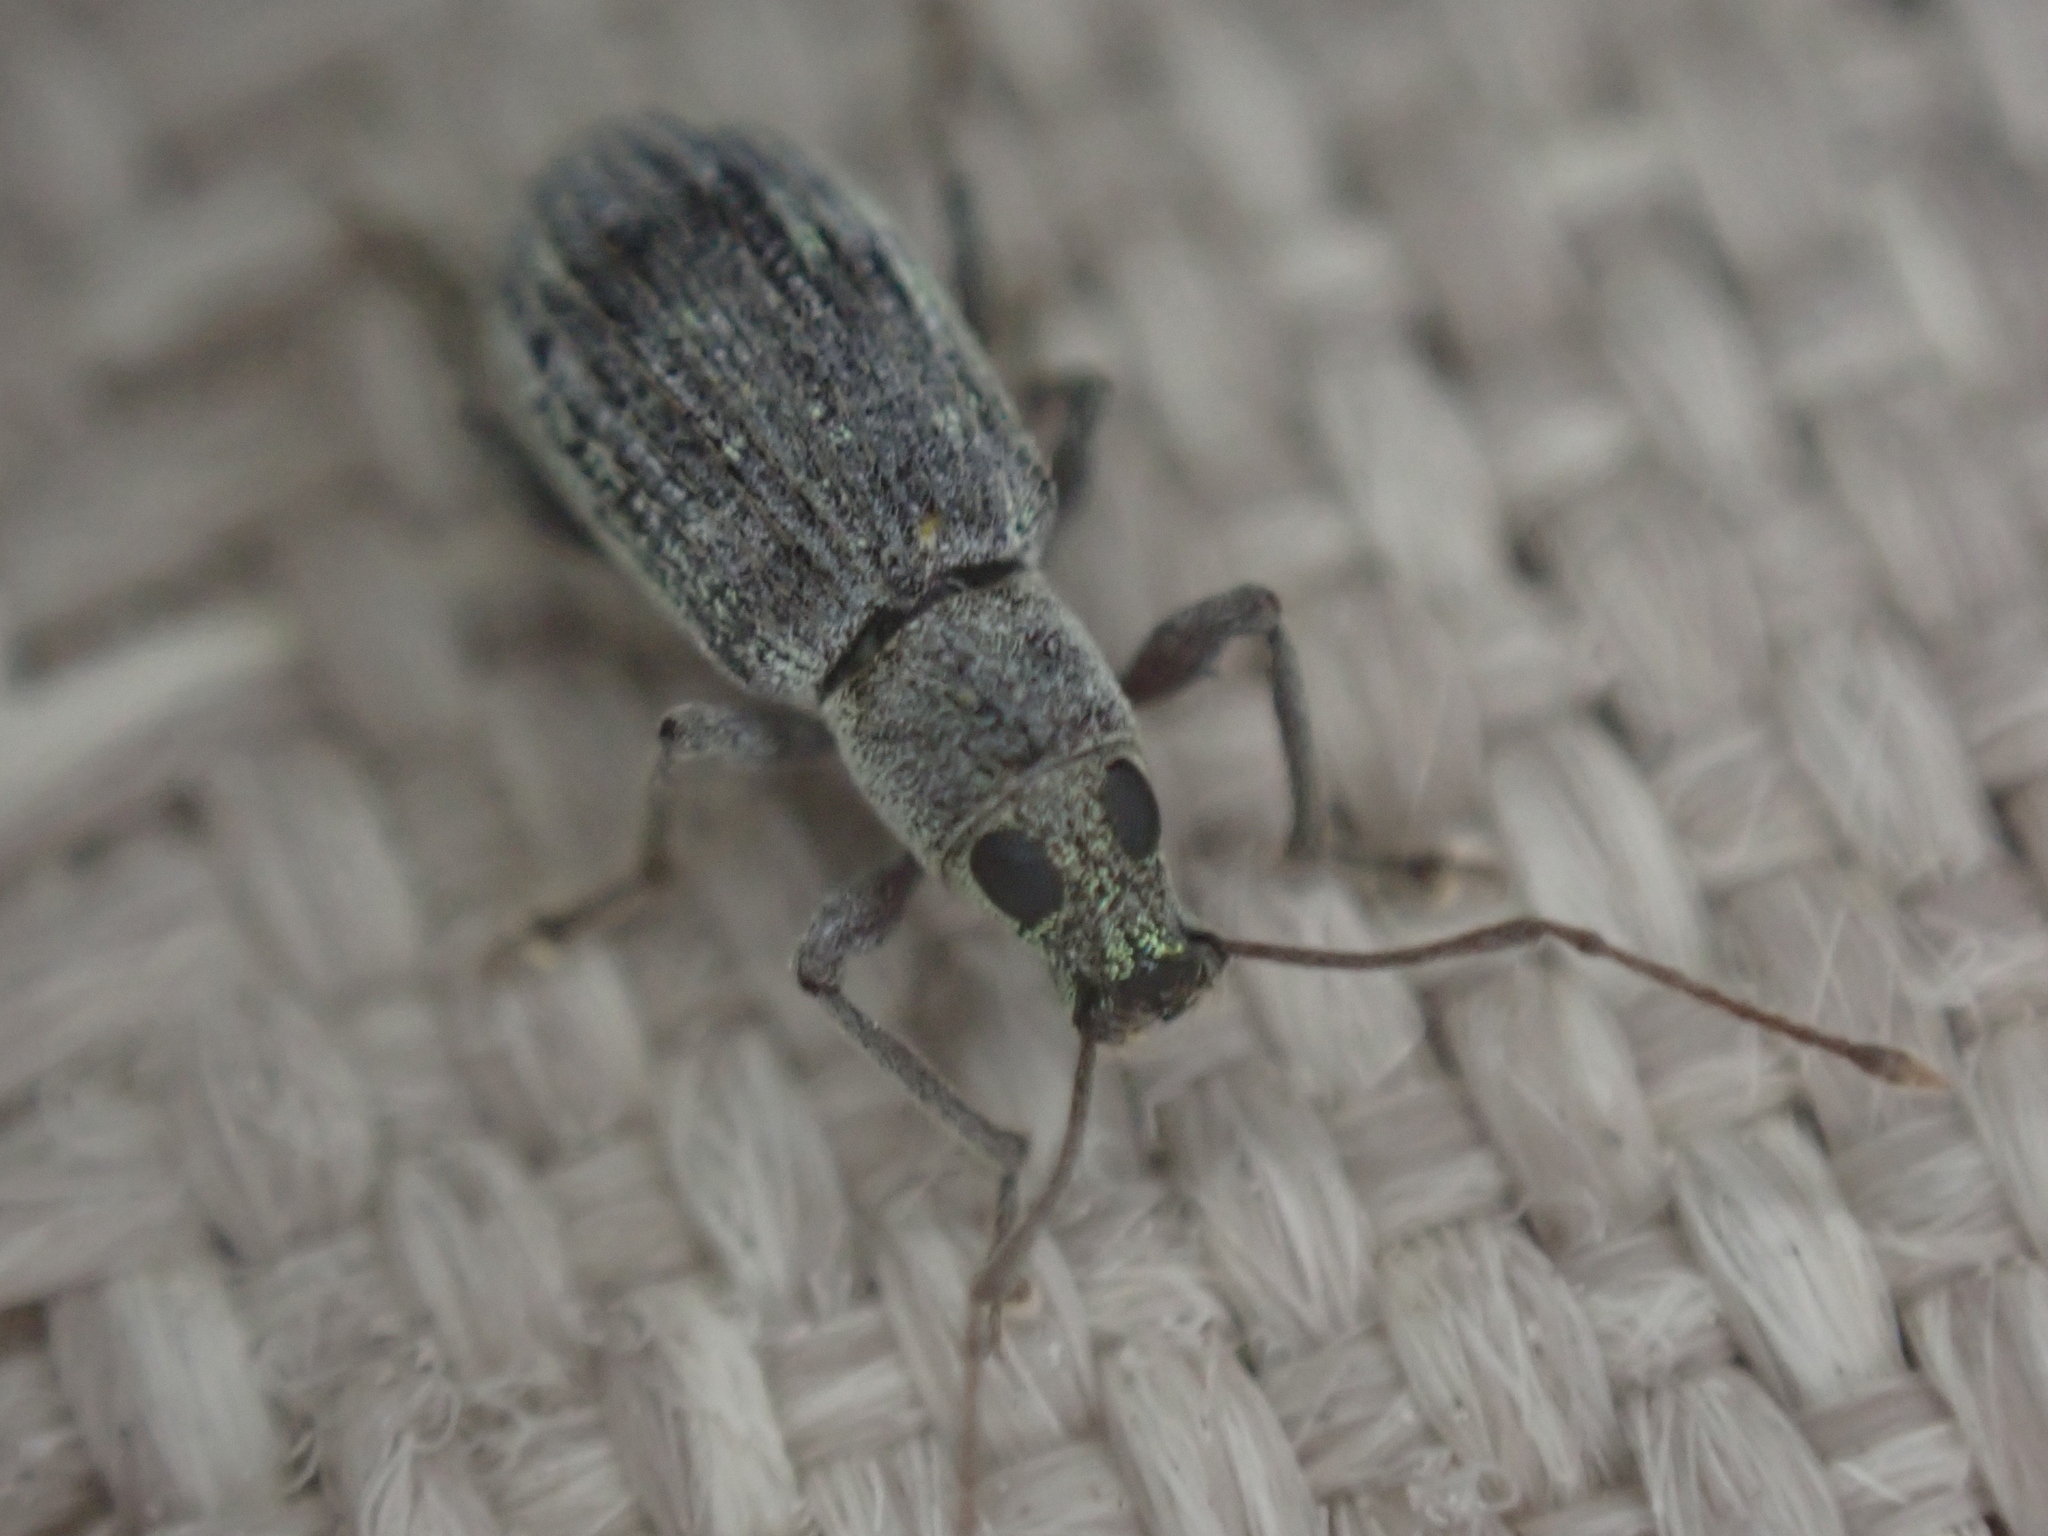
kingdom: Animalia
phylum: Arthropoda
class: Insecta
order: Coleoptera
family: Curculionidae
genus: Cyrtepistomus
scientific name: Cyrtepistomus castaneus
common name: Weevil
